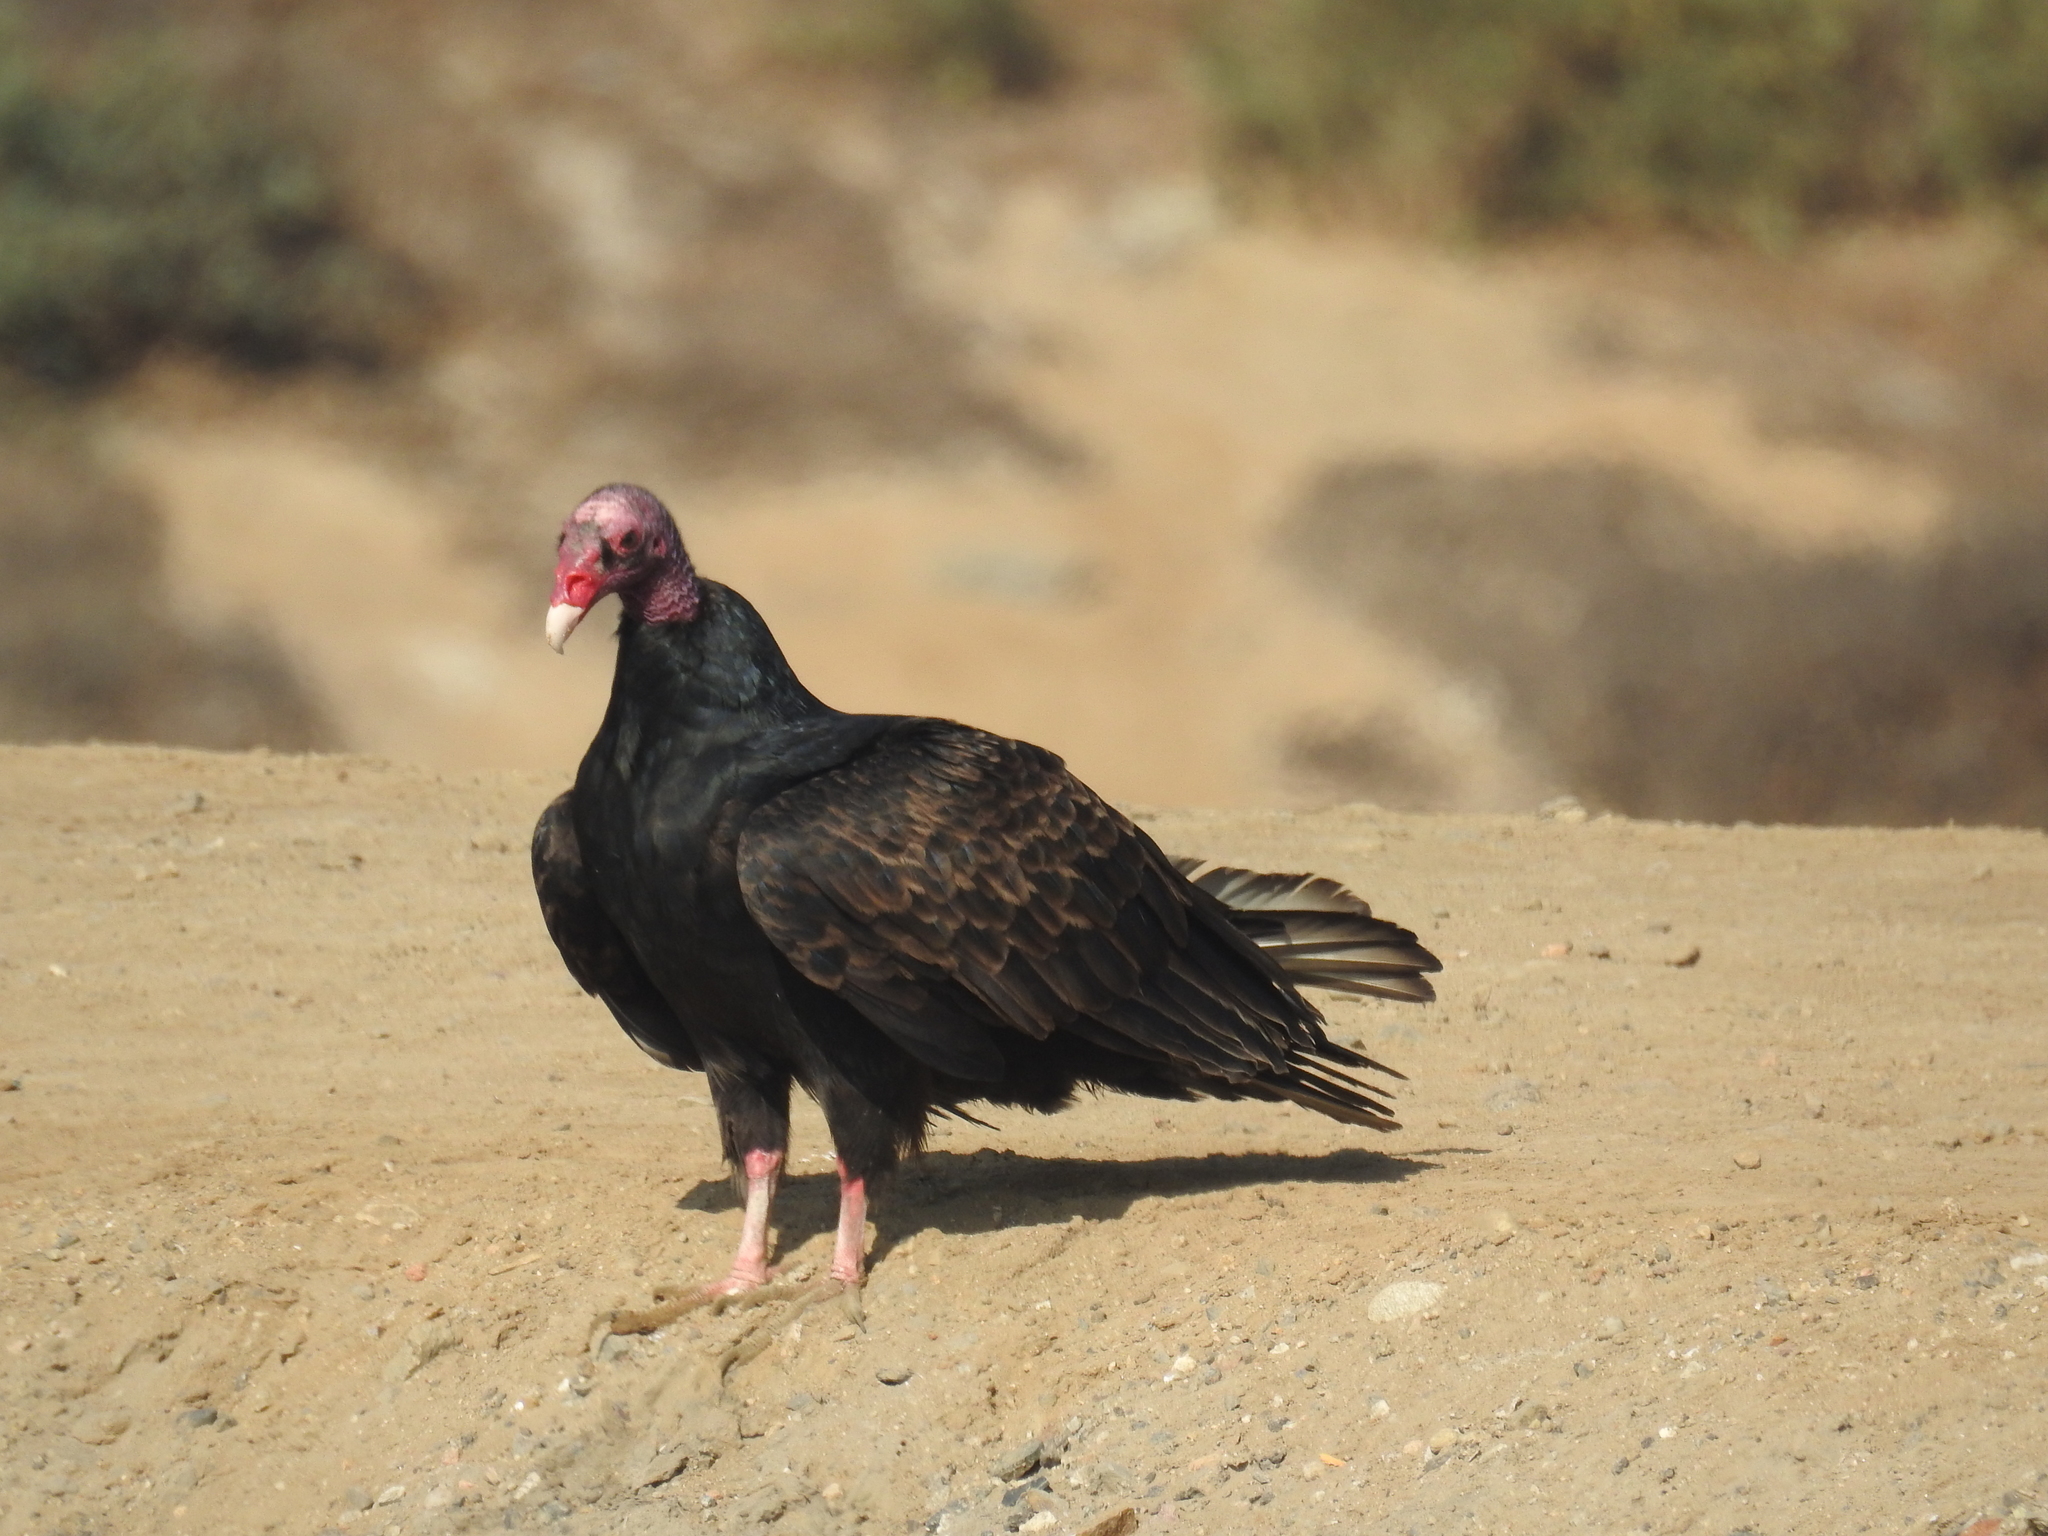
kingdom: Animalia
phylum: Chordata
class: Aves
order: Accipitriformes
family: Cathartidae
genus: Cathartes
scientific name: Cathartes aura
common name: Turkey vulture
